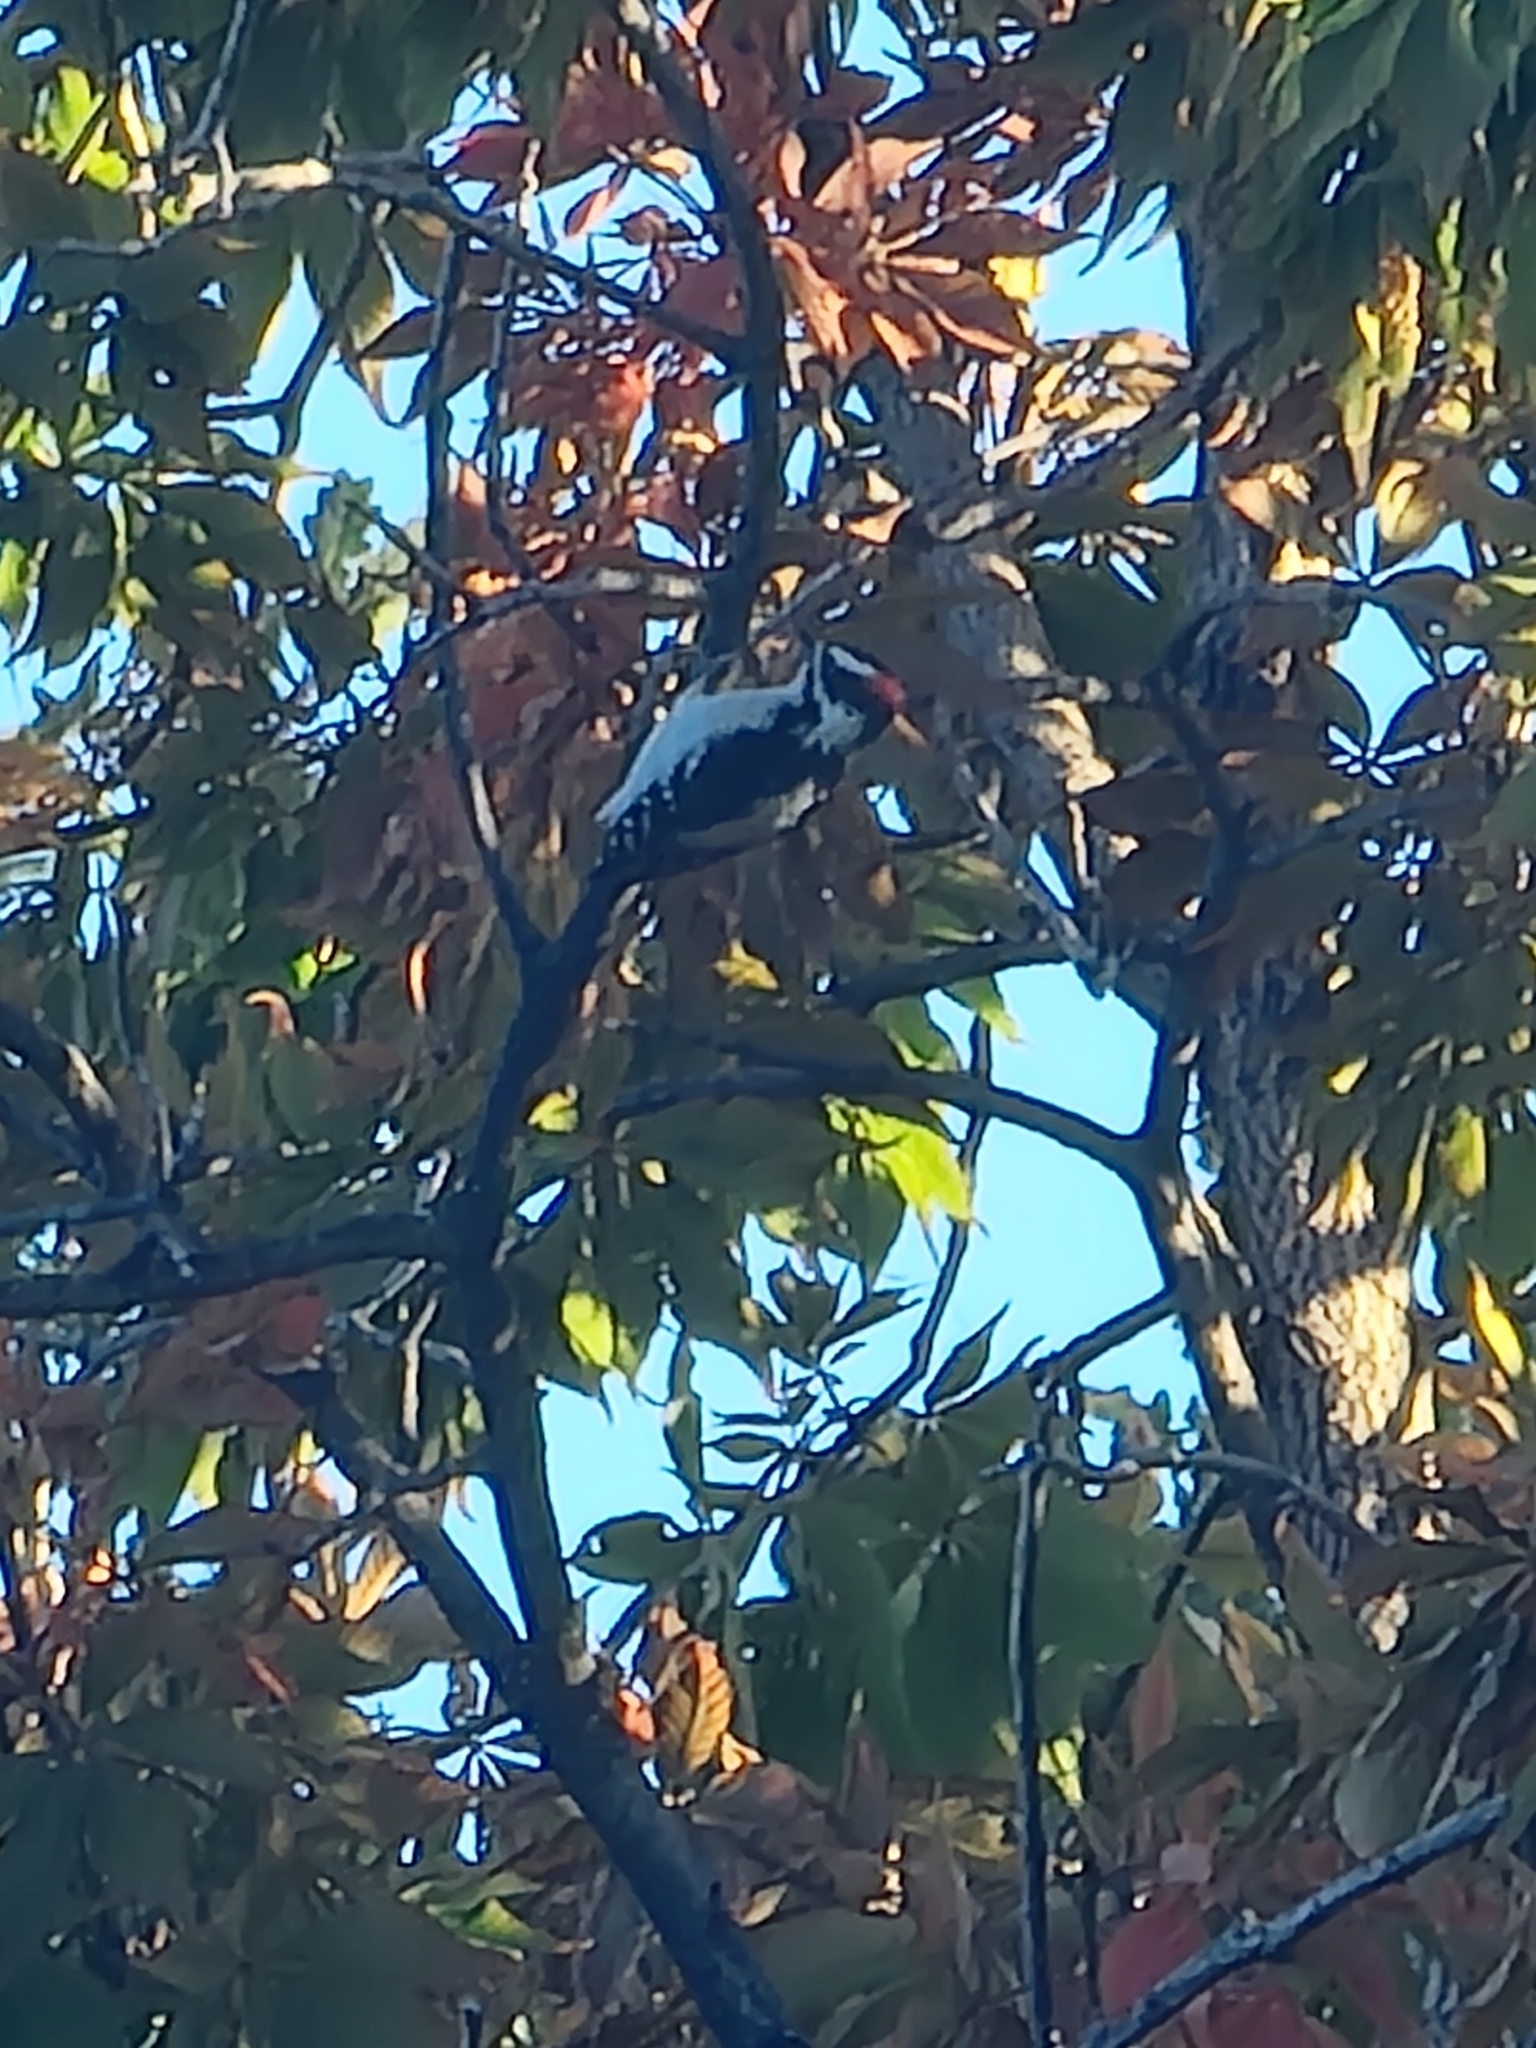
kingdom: Animalia
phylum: Chordata
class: Aves
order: Piciformes
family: Picidae
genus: Dryobates
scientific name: Dryobates pubescens
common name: Downy woodpecker
